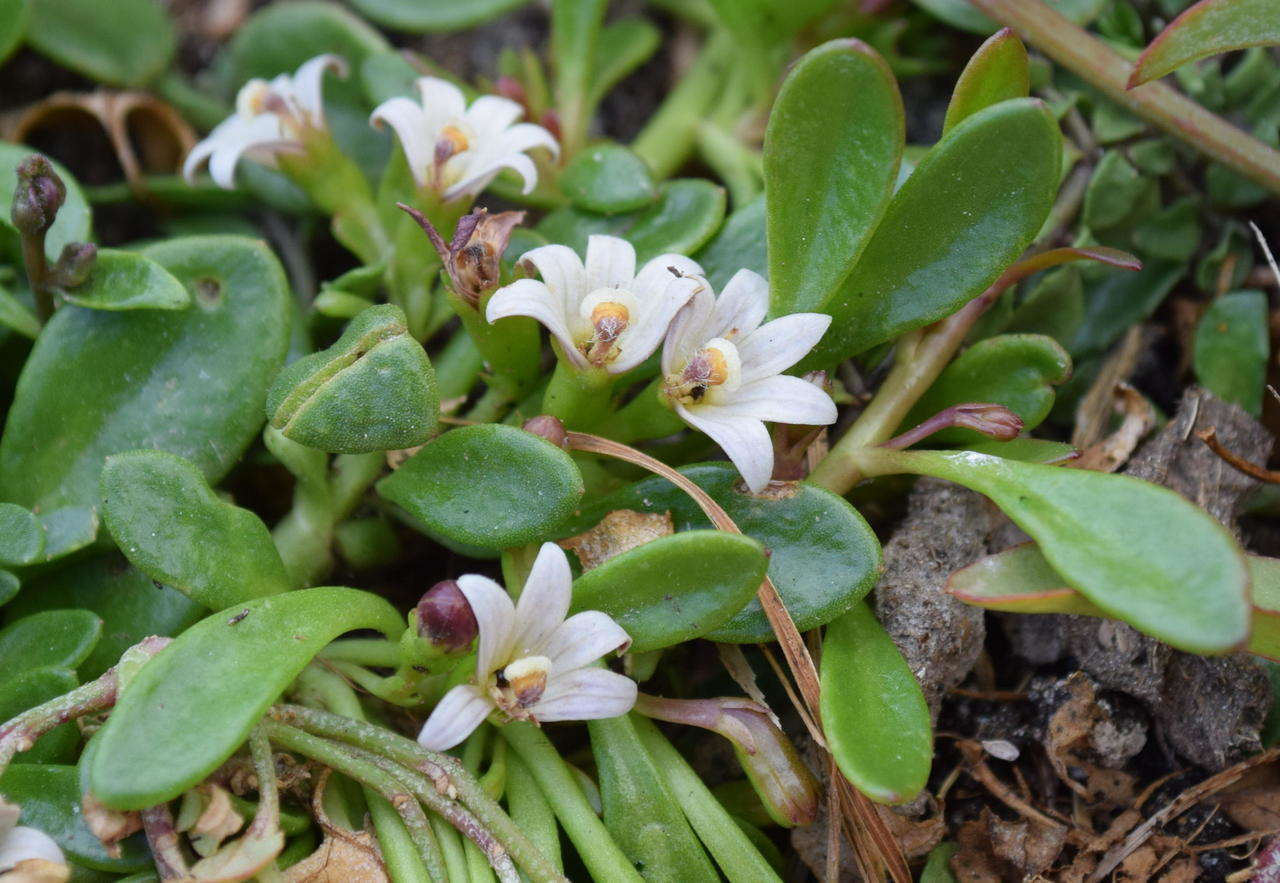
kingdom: Plantae
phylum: Tracheophyta
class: Magnoliopsida
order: Asterales
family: Goodeniaceae
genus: Goodenia
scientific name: Goodenia radicans
